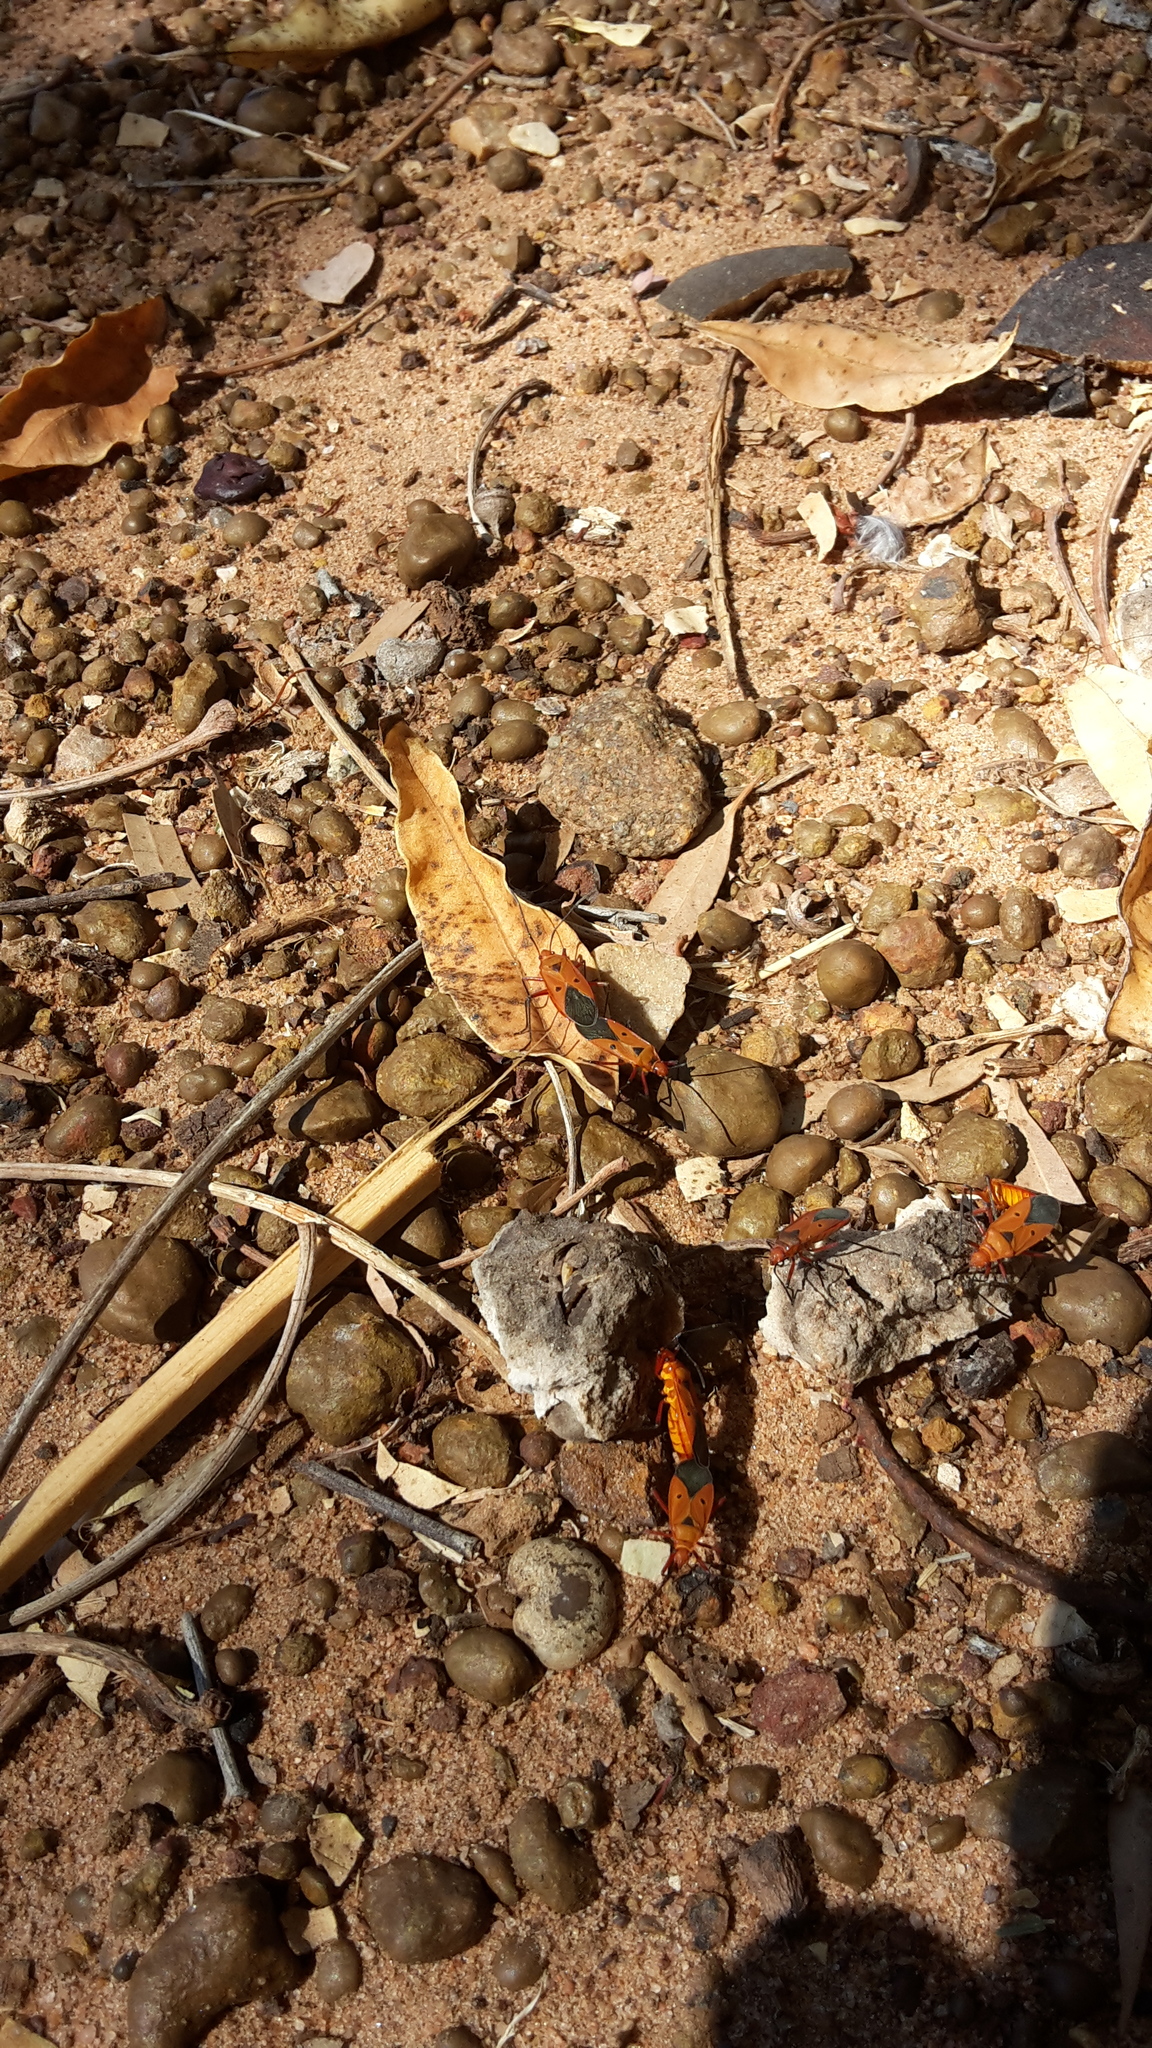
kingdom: Animalia
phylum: Arthropoda
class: Insecta
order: Hemiptera
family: Pyrrhocoridae
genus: Dysdercus
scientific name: Dysdercus sidae
